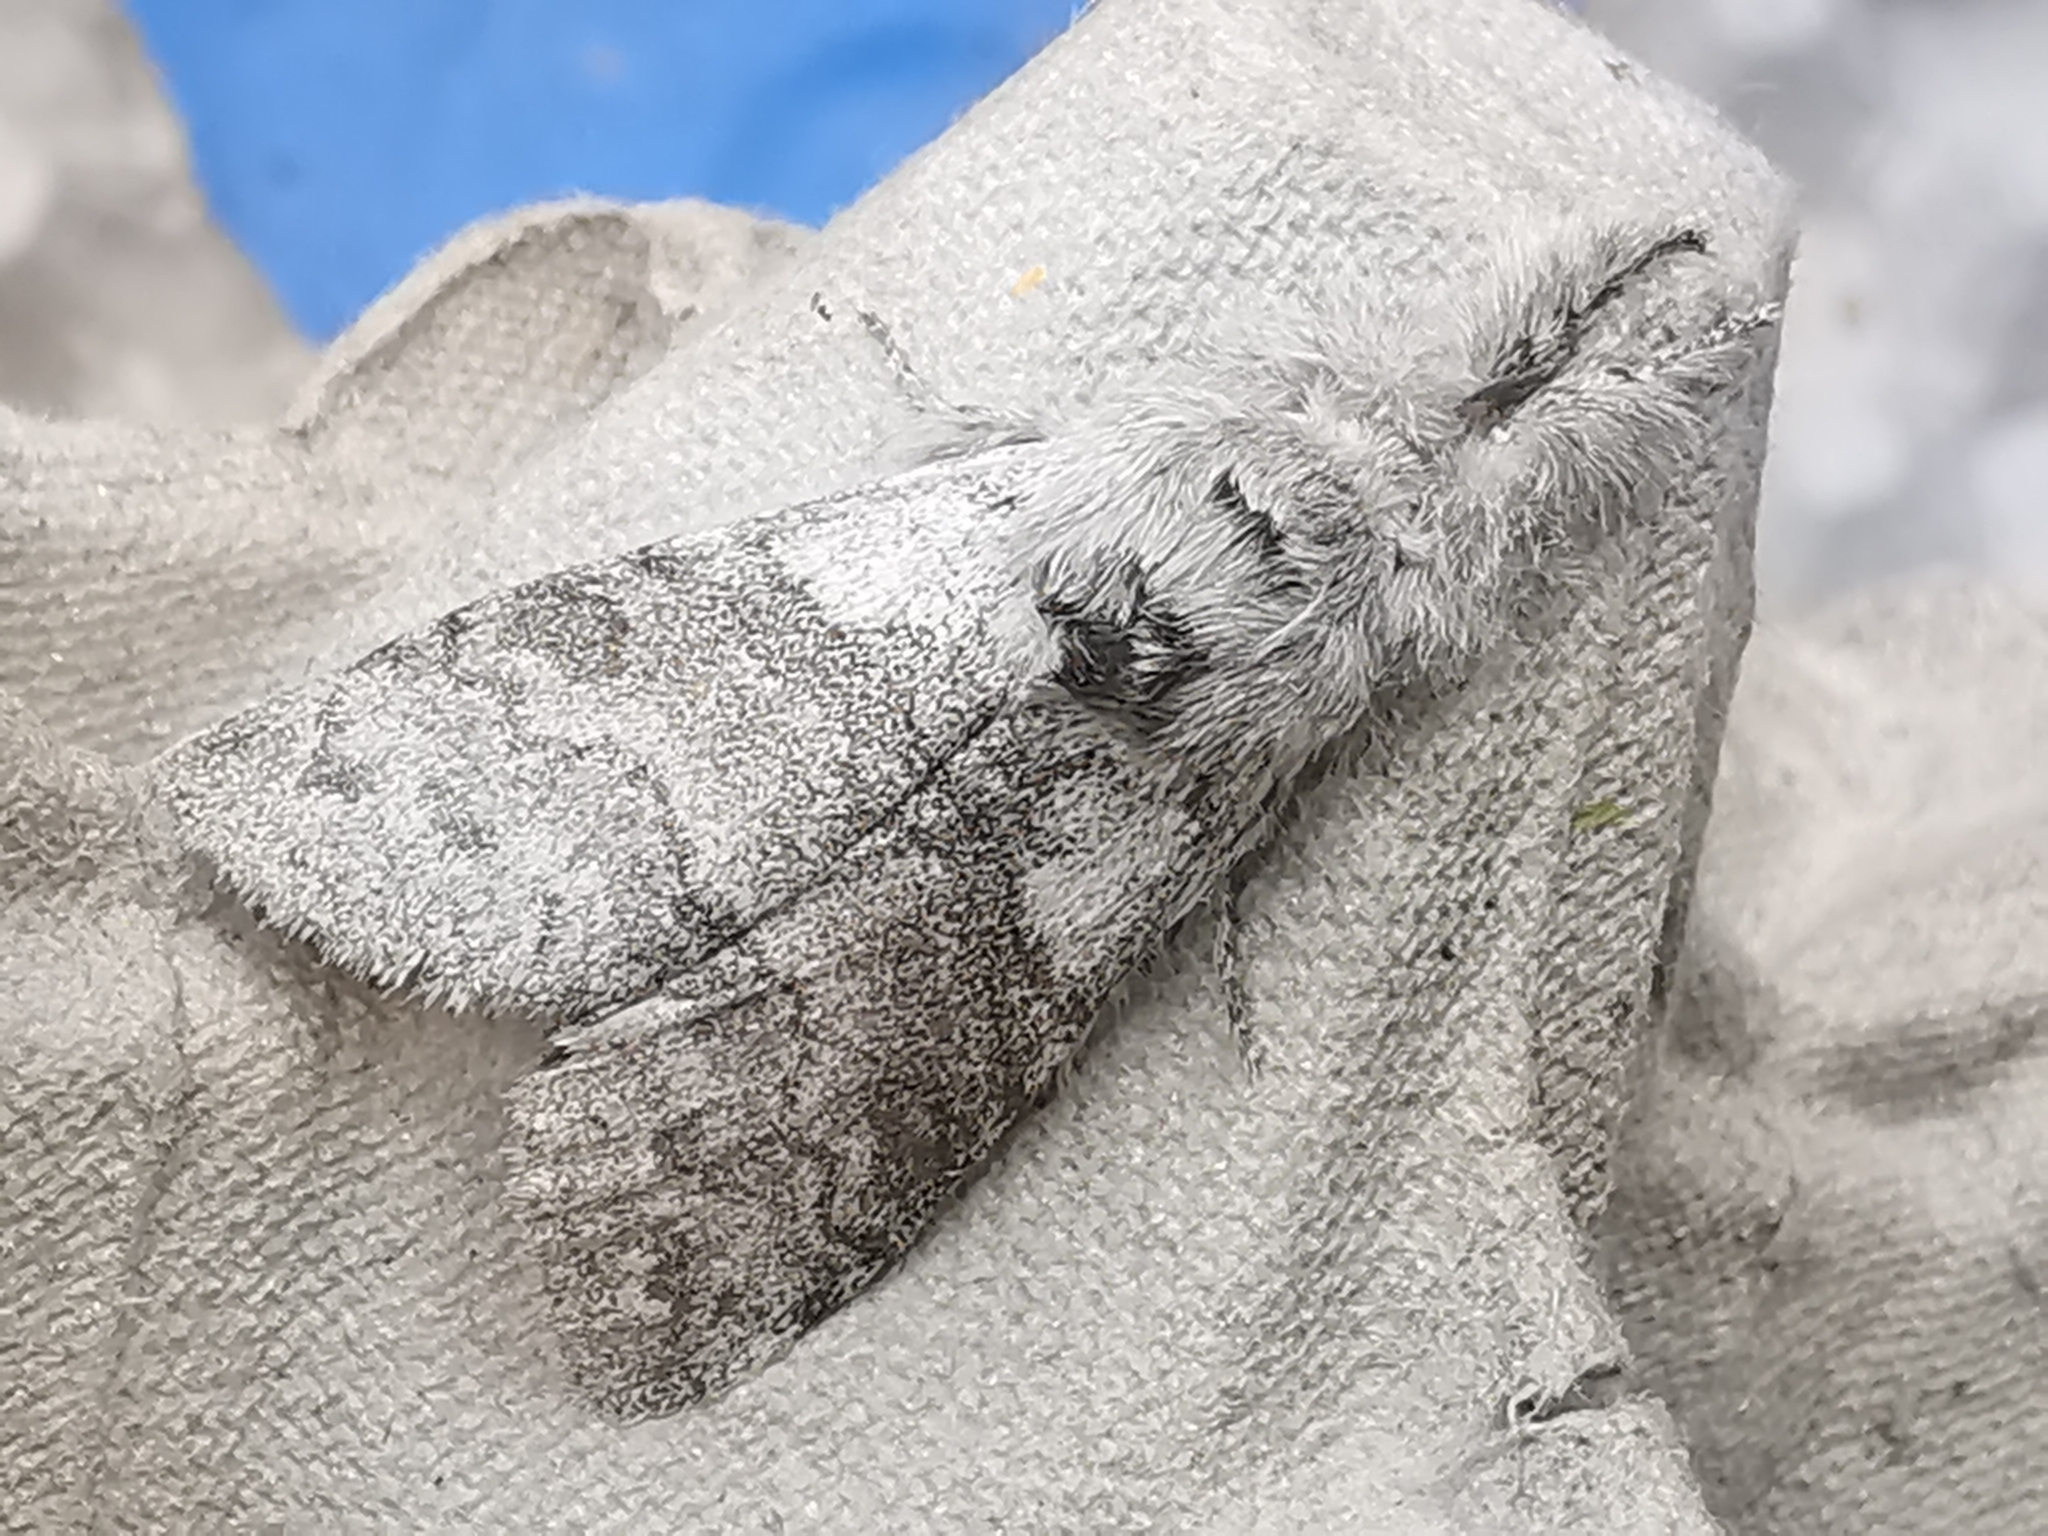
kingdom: Animalia
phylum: Arthropoda
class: Insecta
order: Lepidoptera
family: Erebidae
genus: Calliteara
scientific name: Calliteara pudibunda
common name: Pale tussock
